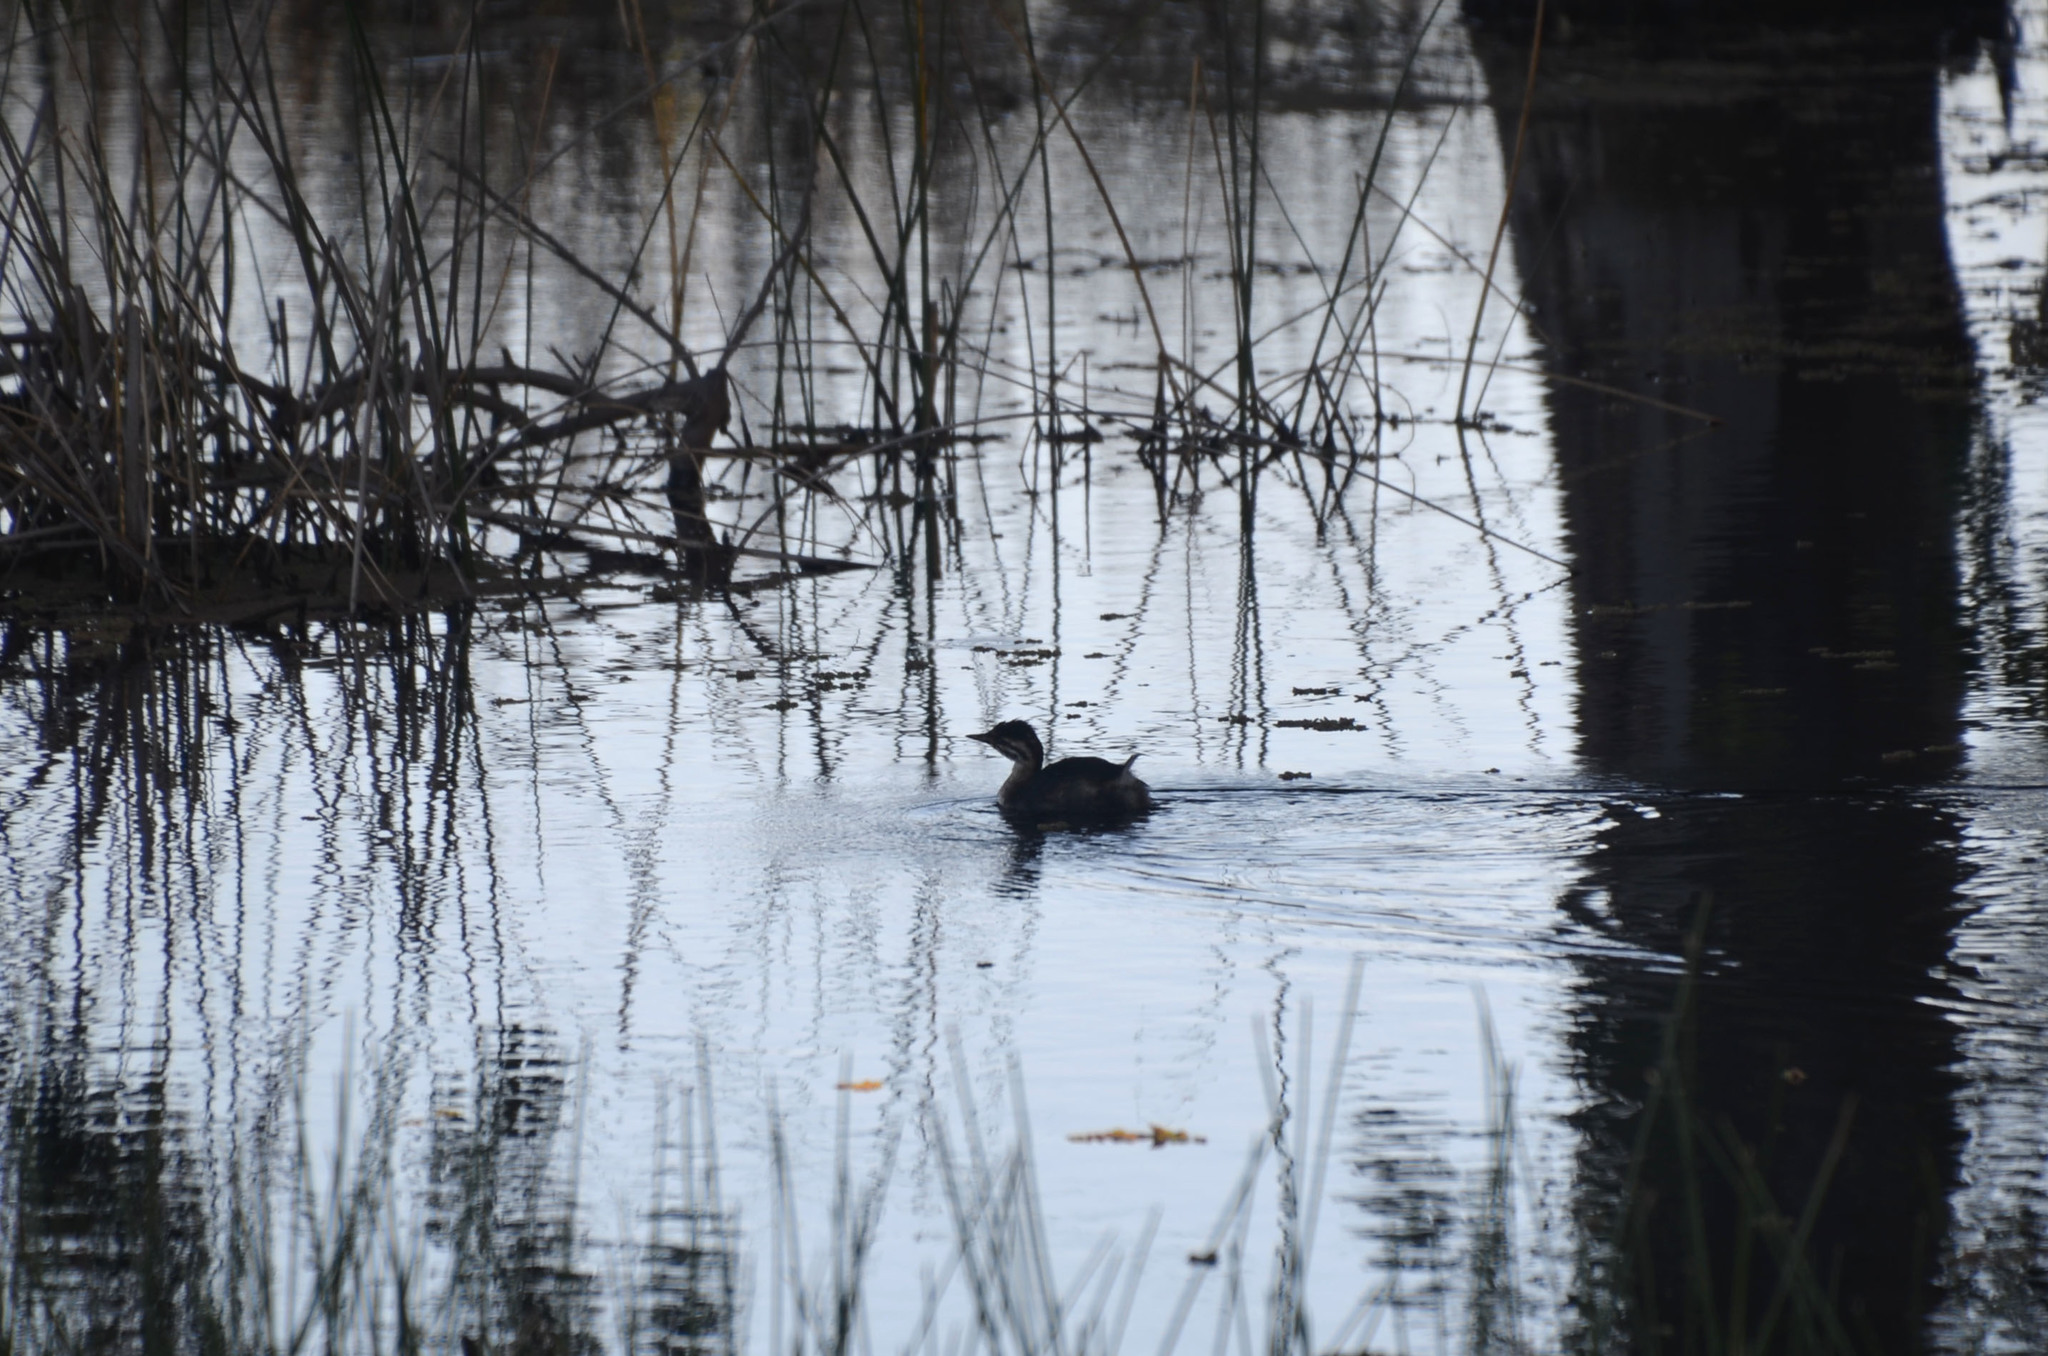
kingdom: Animalia
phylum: Chordata
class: Aves
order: Podicipediformes
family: Podicipedidae
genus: Rollandia
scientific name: Rollandia rolland
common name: White-tufted grebe
